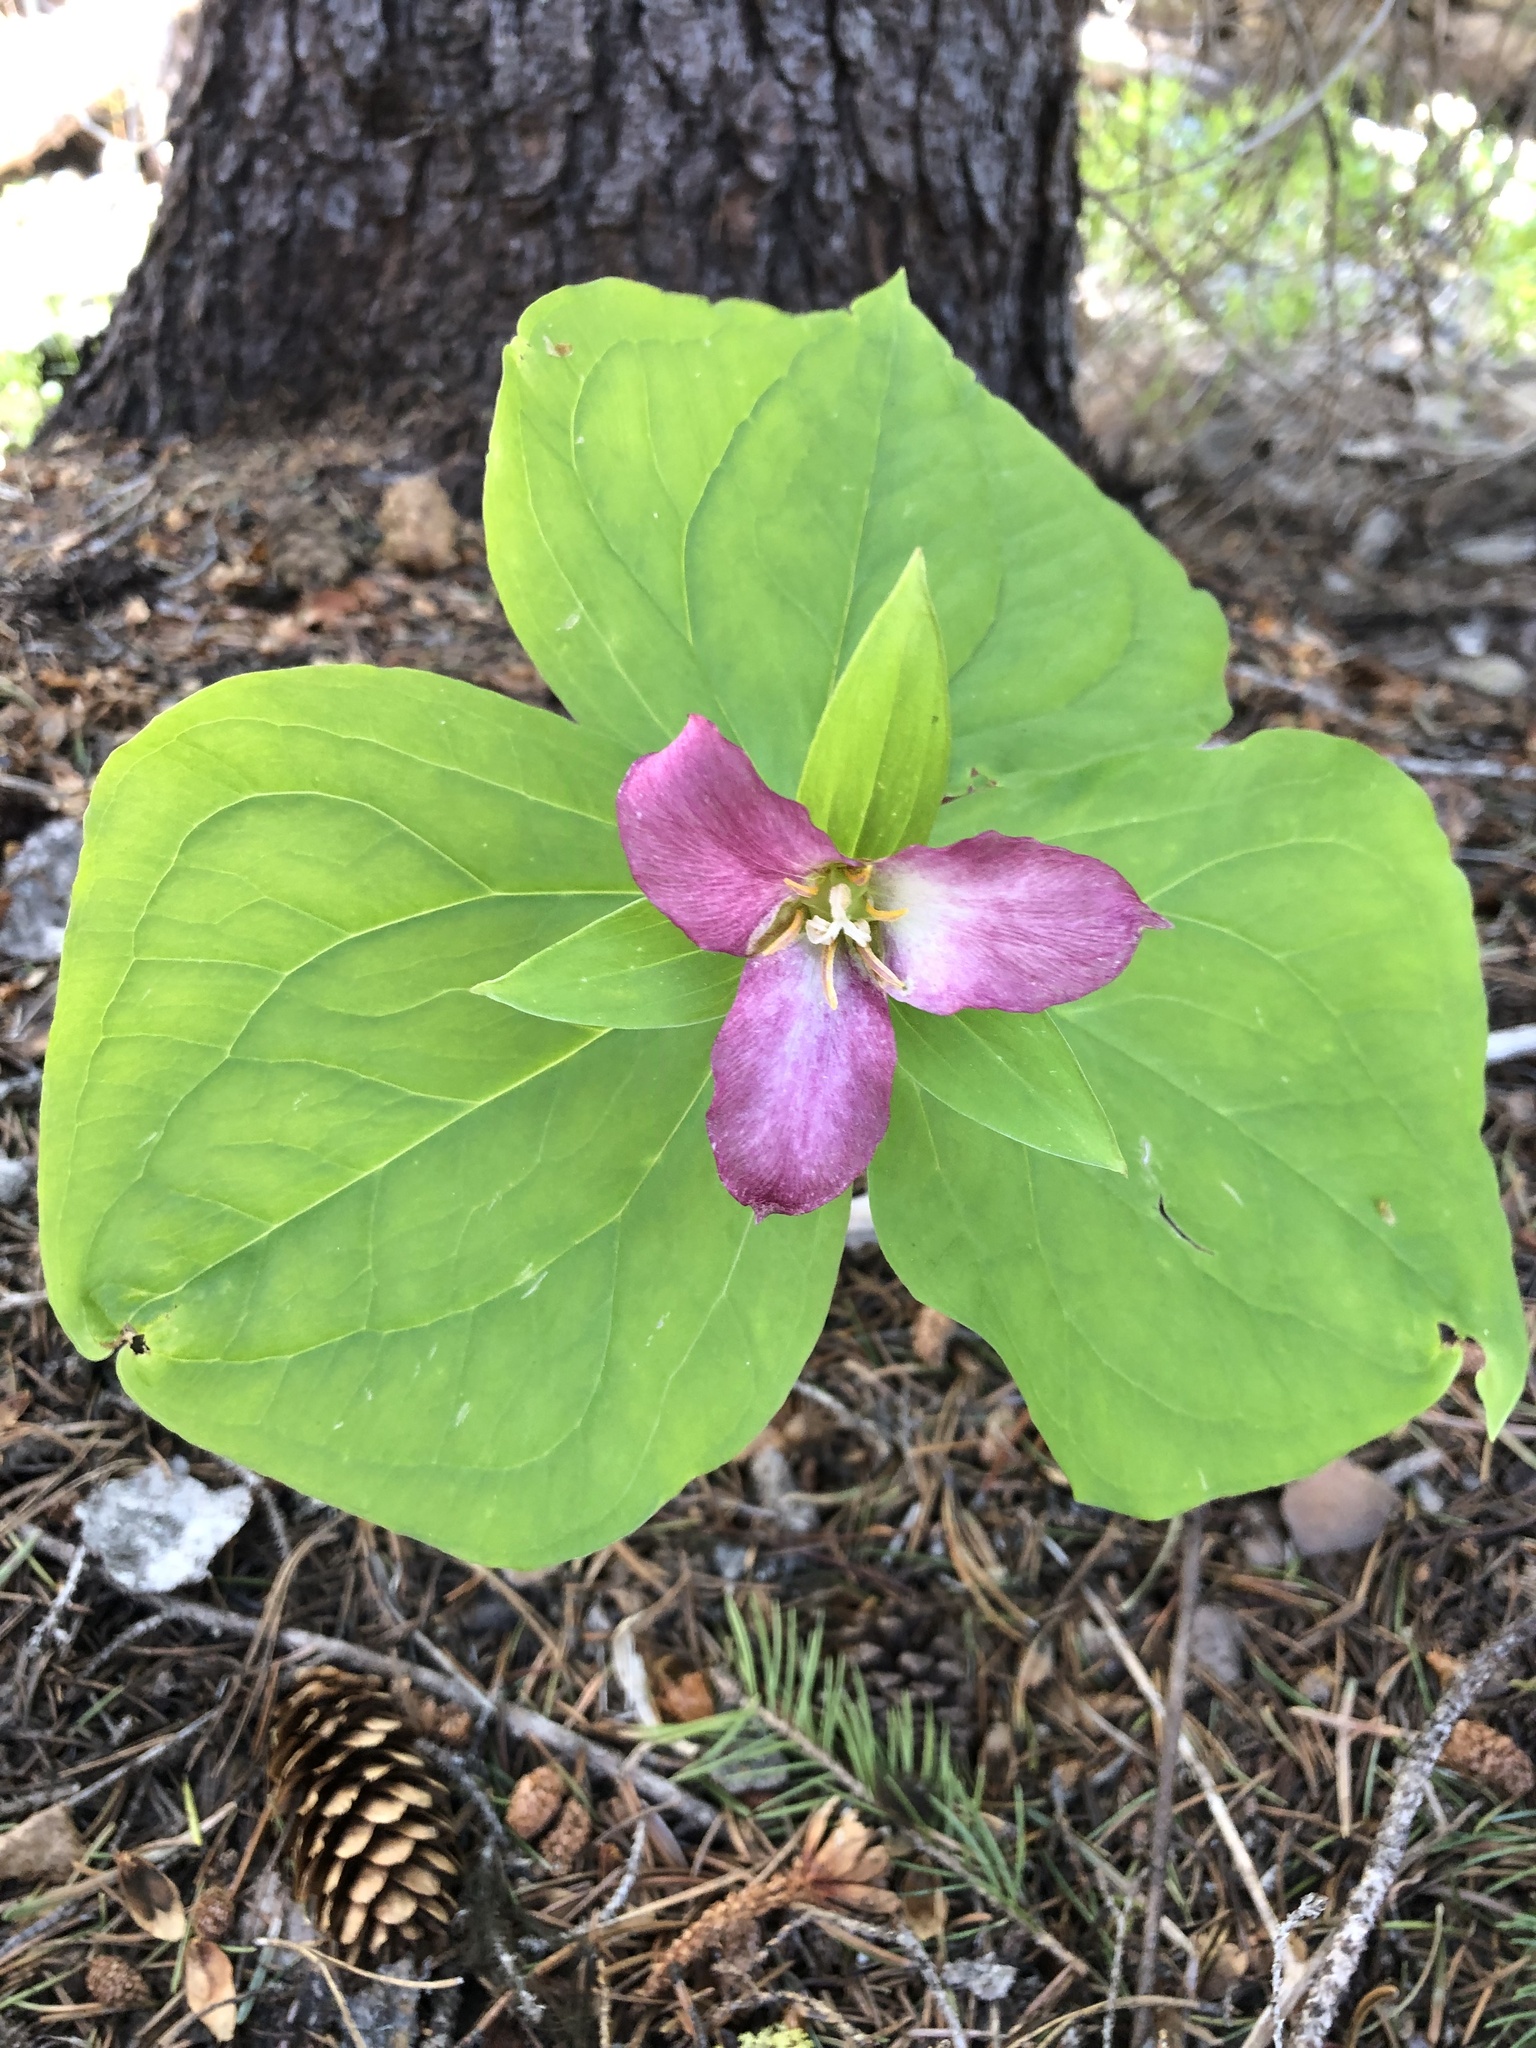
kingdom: Plantae
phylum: Tracheophyta
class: Liliopsida
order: Liliales
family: Melanthiaceae
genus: Trillium
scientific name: Trillium ovatum
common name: Pacific trillium
